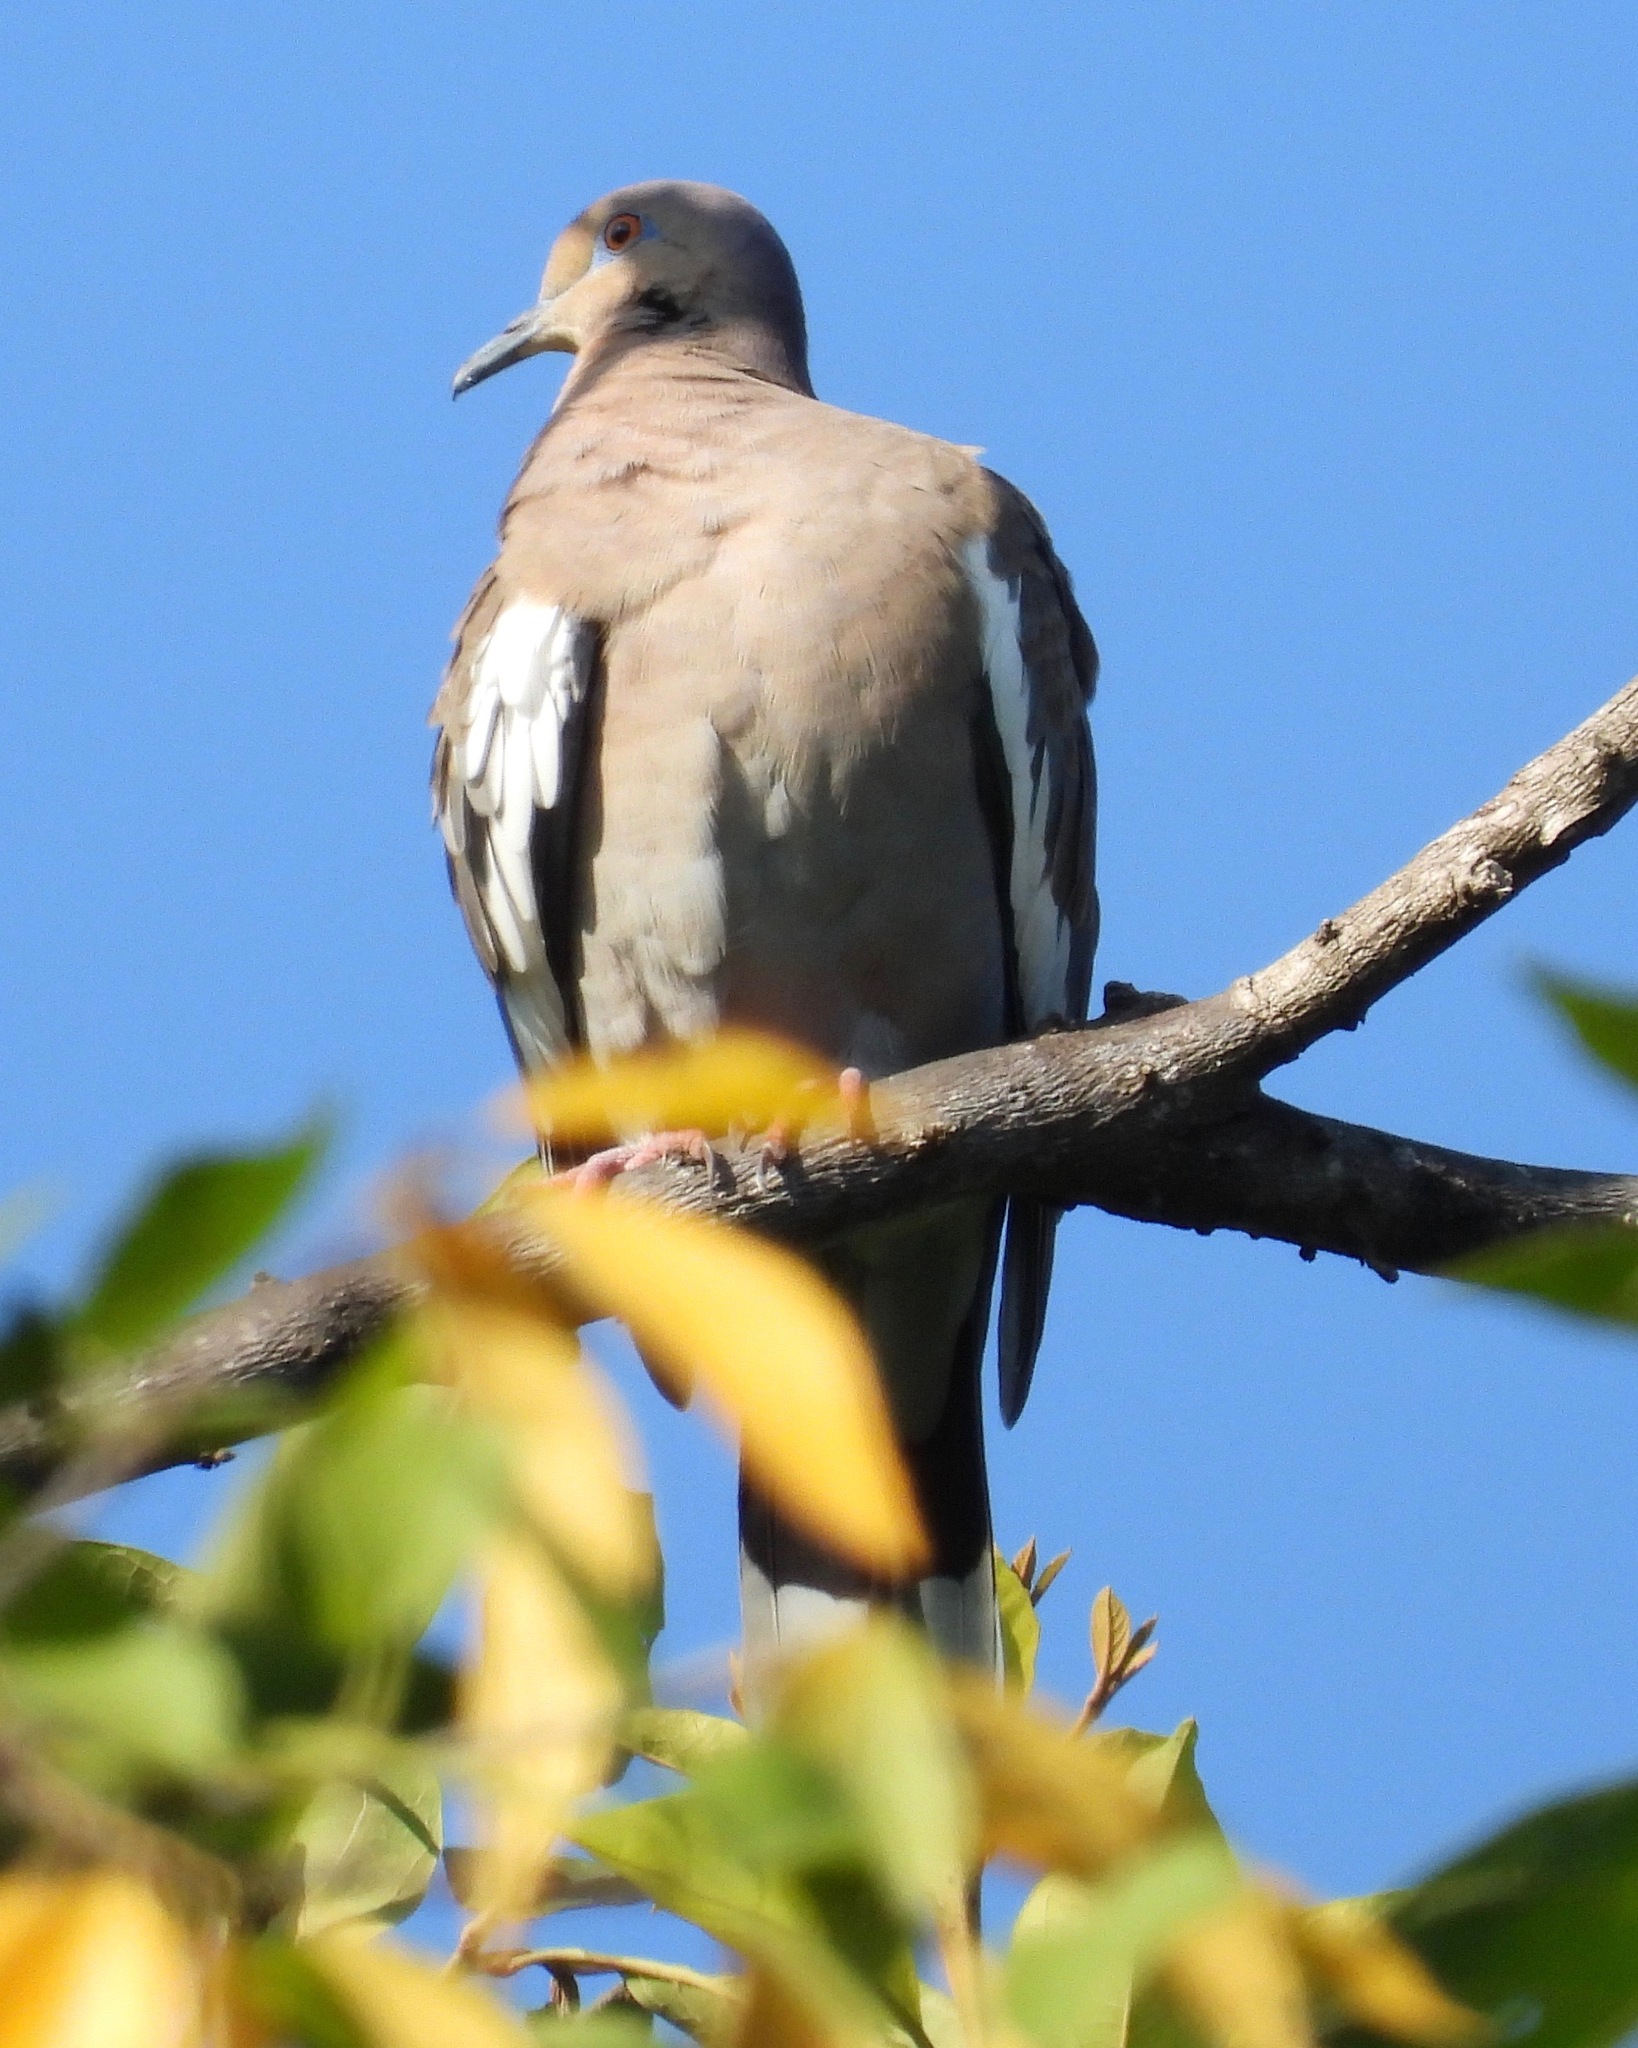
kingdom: Animalia
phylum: Chordata
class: Aves
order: Columbiformes
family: Columbidae
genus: Zenaida
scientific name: Zenaida asiatica
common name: White-winged dove
